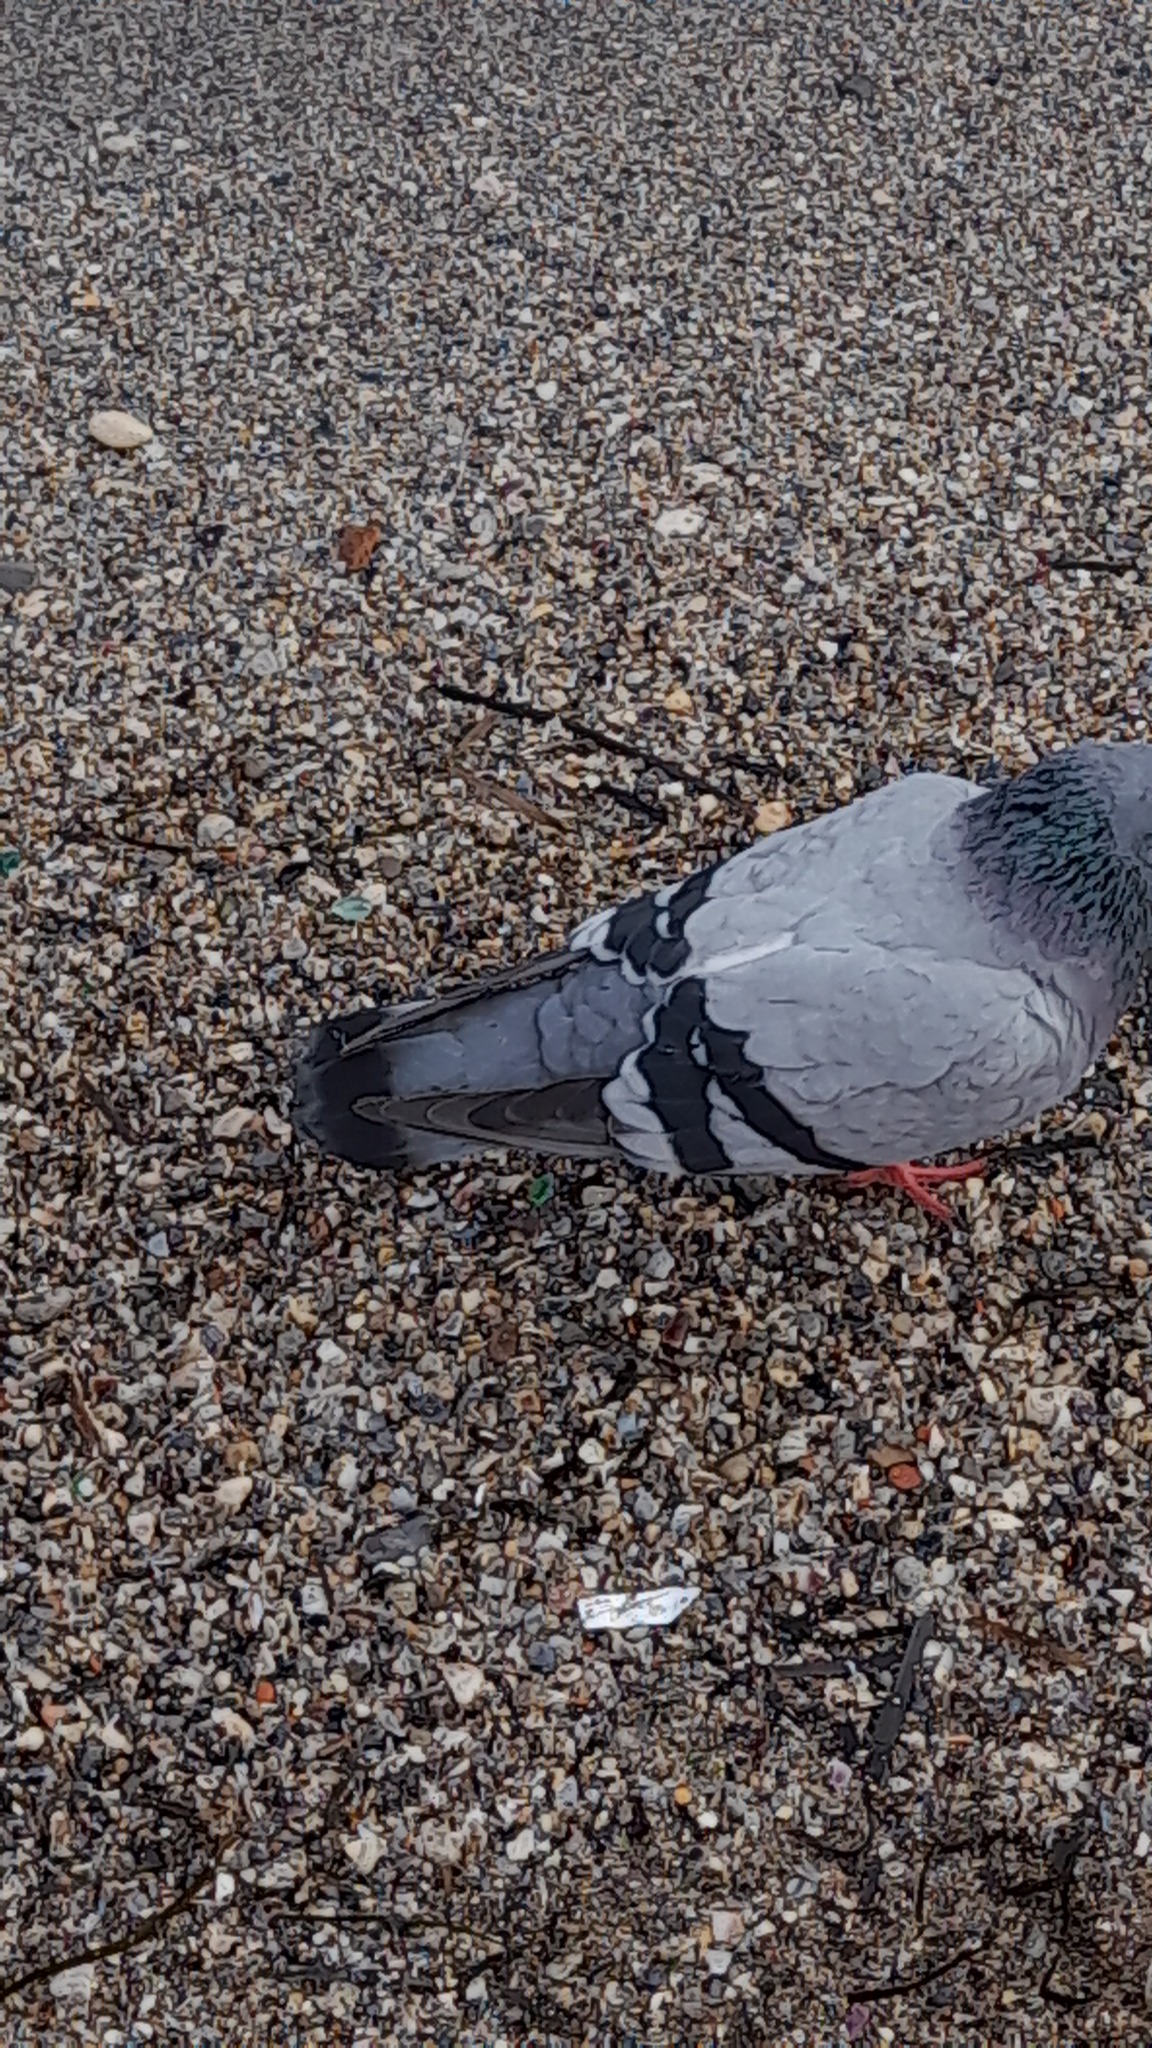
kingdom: Animalia
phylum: Chordata
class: Aves
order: Columbiformes
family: Columbidae
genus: Columba
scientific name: Columba livia
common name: Rock pigeon
